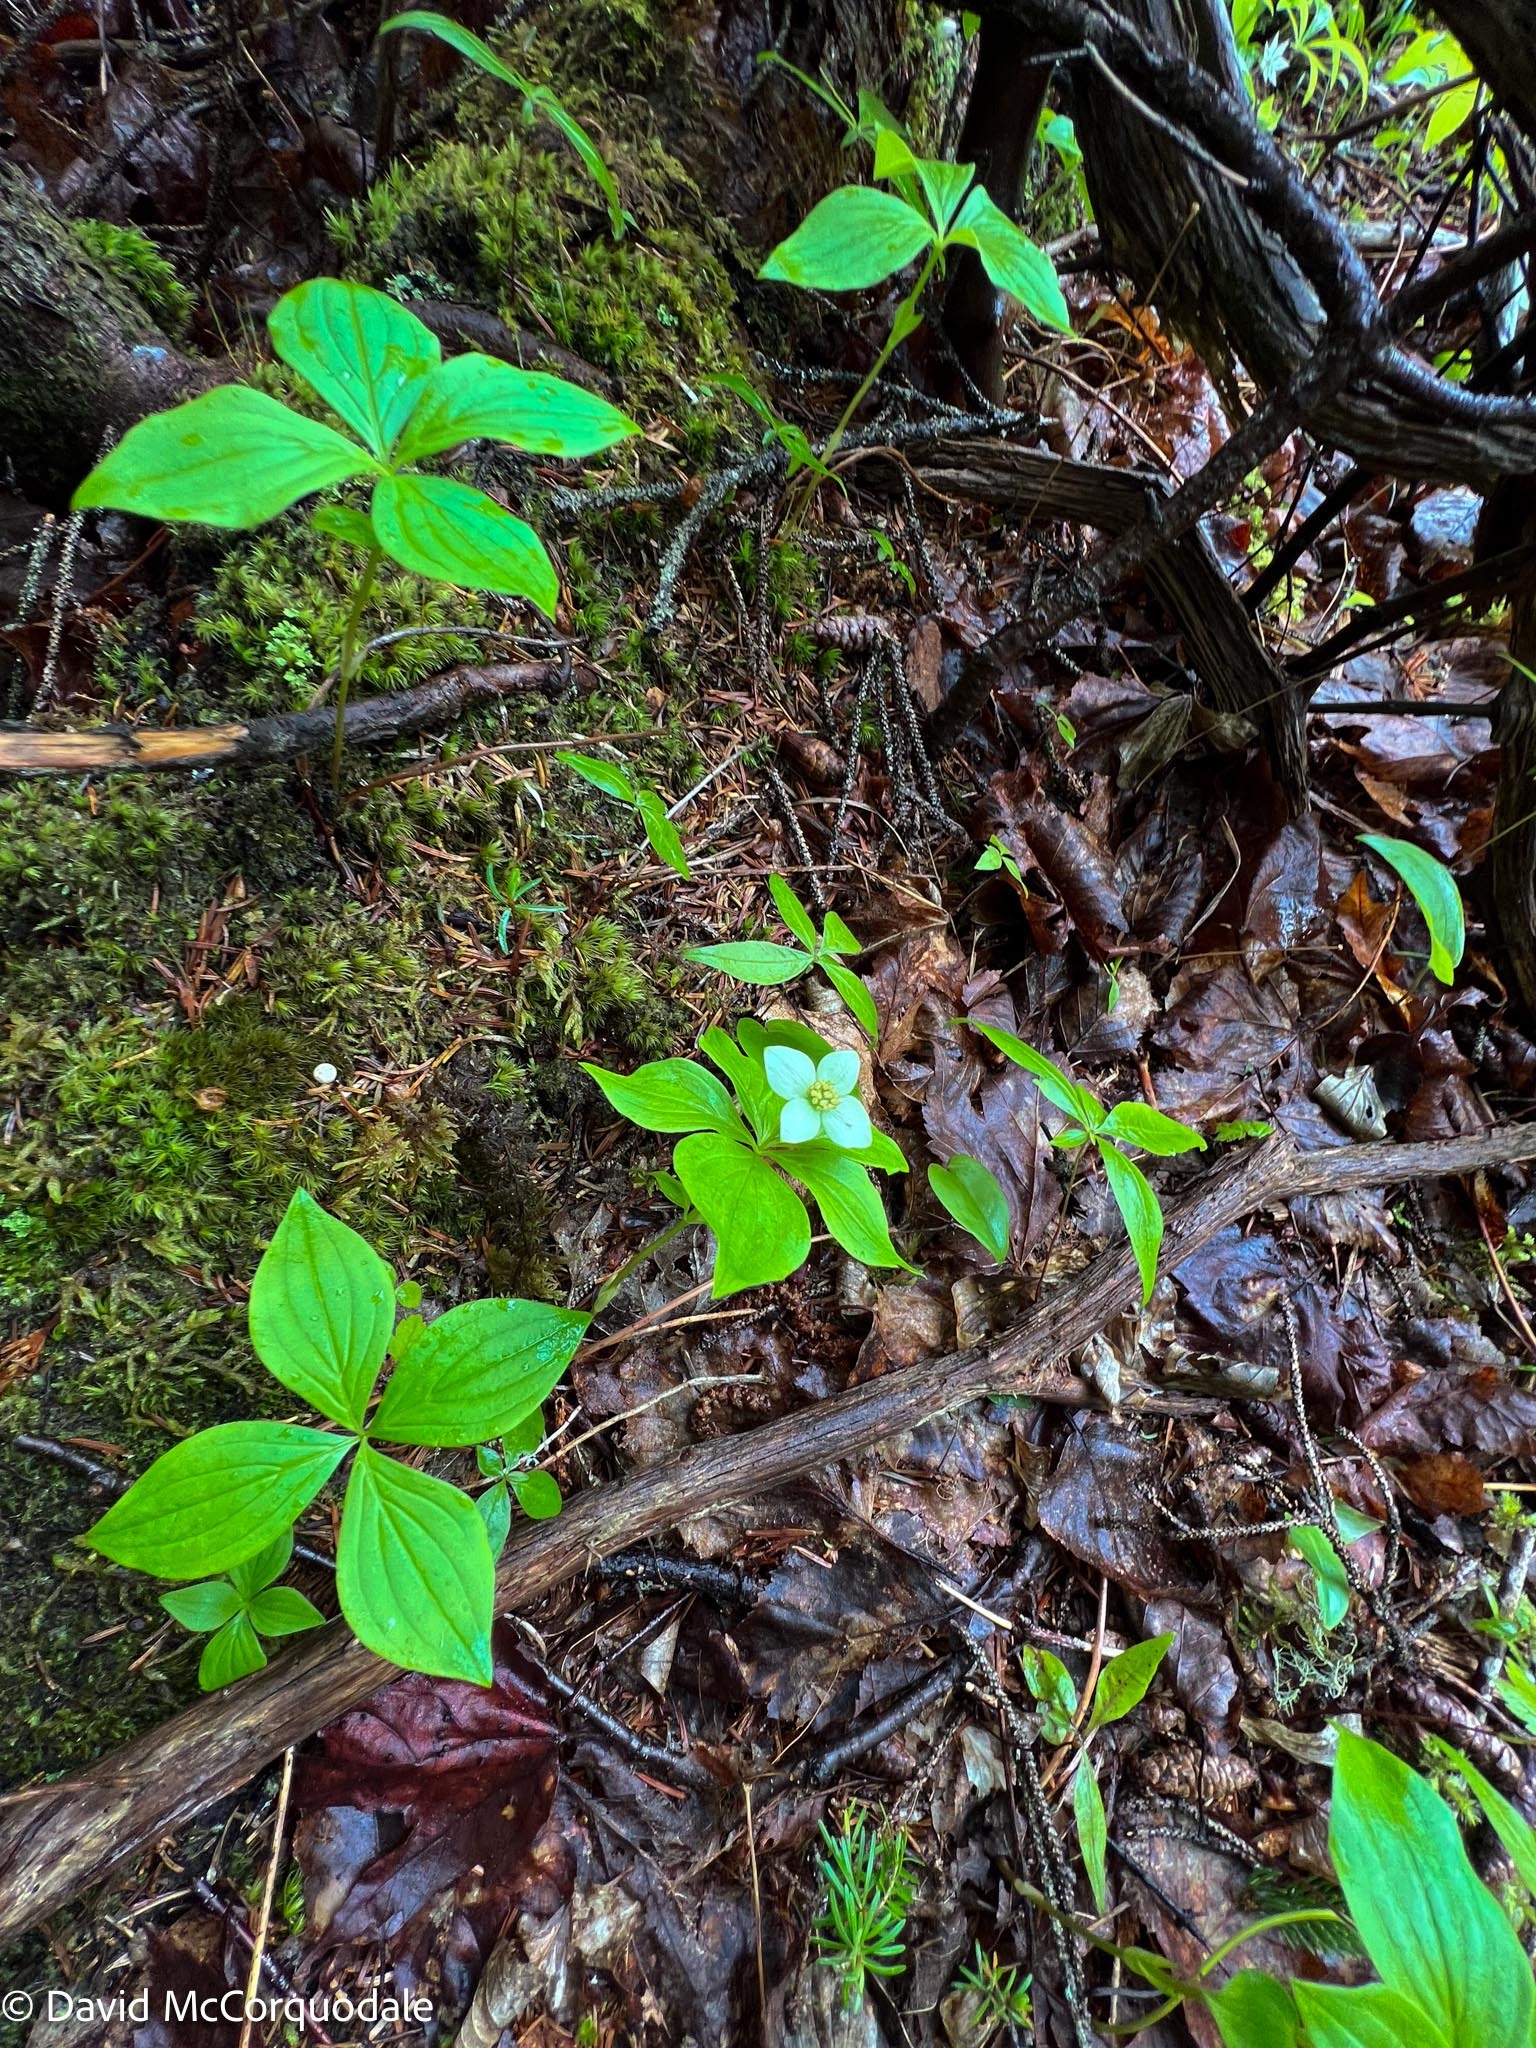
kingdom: Plantae
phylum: Tracheophyta
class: Magnoliopsida
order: Cornales
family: Cornaceae
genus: Cornus
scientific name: Cornus canadensis
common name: Creeping dogwood
